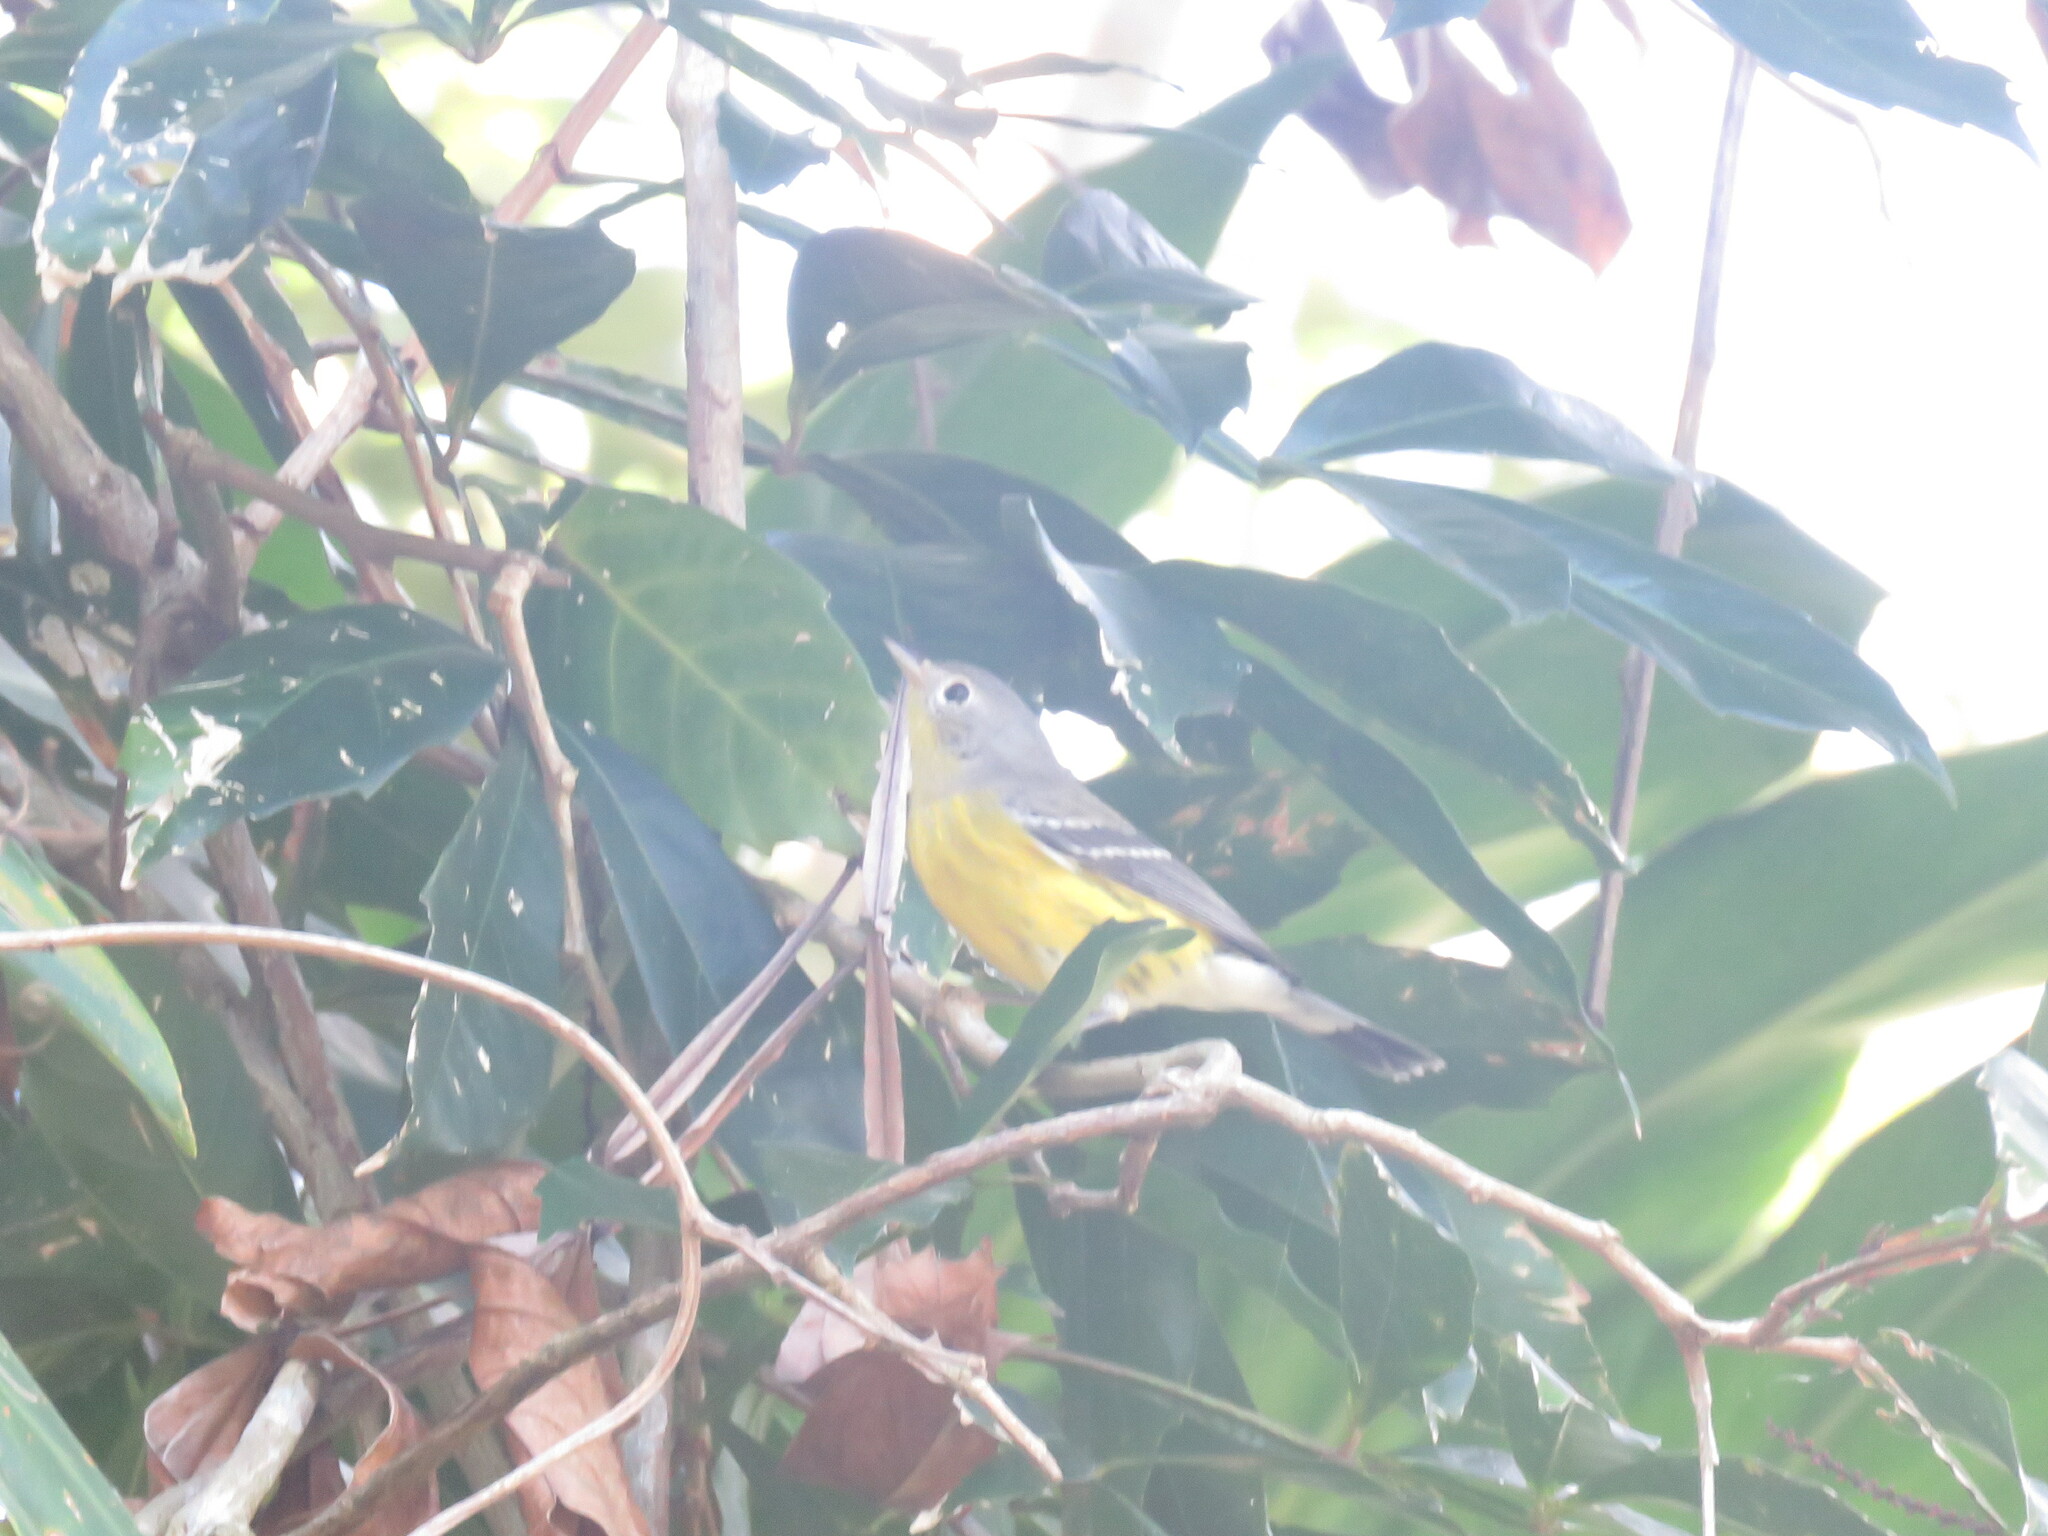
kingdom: Animalia
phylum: Chordata
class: Aves
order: Passeriformes
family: Parulidae
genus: Setophaga
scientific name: Setophaga magnolia
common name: Magnolia warbler
